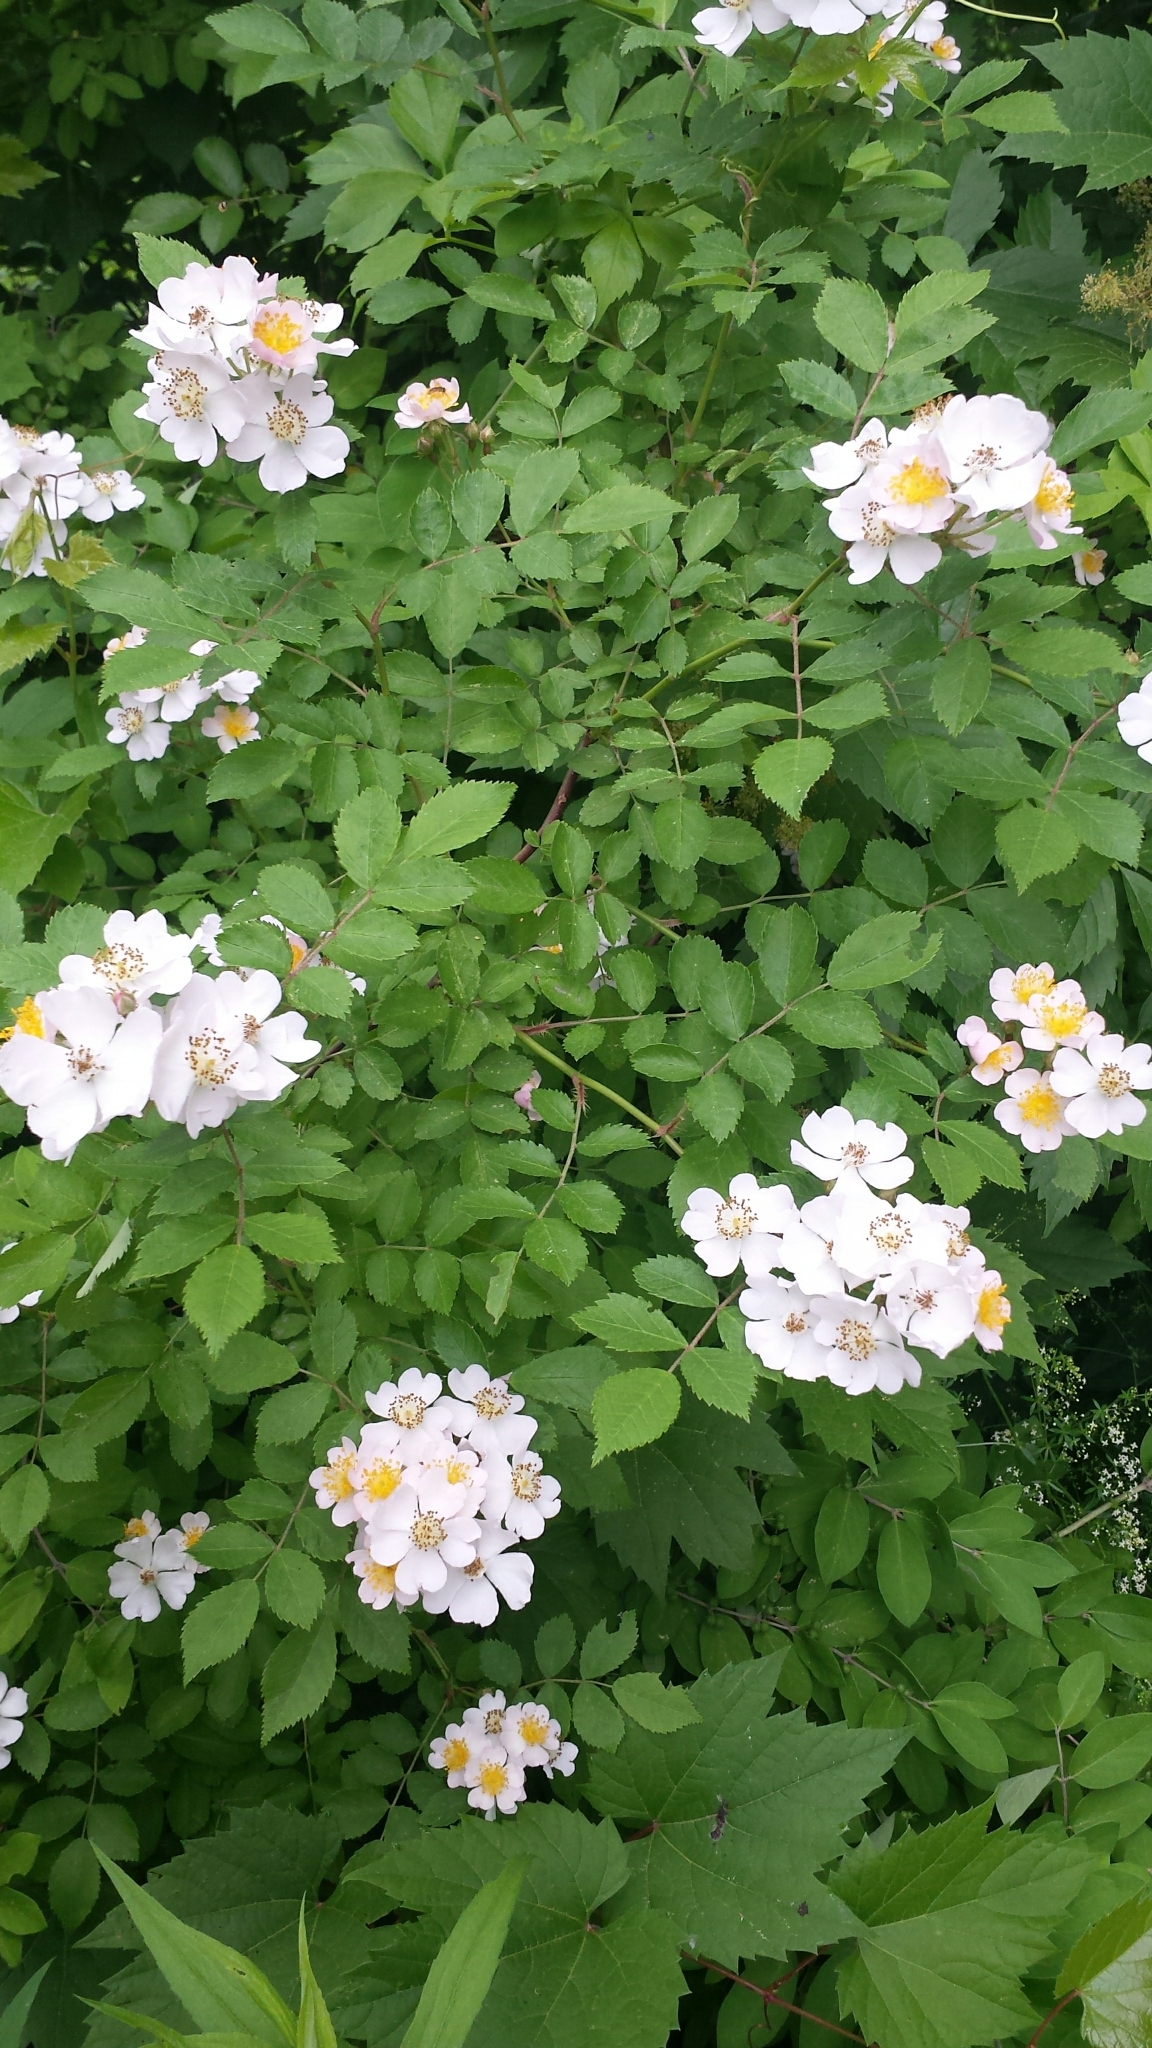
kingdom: Plantae
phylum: Tracheophyta
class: Magnoliopsida
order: Rosales
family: Rosaceae
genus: Rosa
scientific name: Rosa multiflora
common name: Multiflora rose
